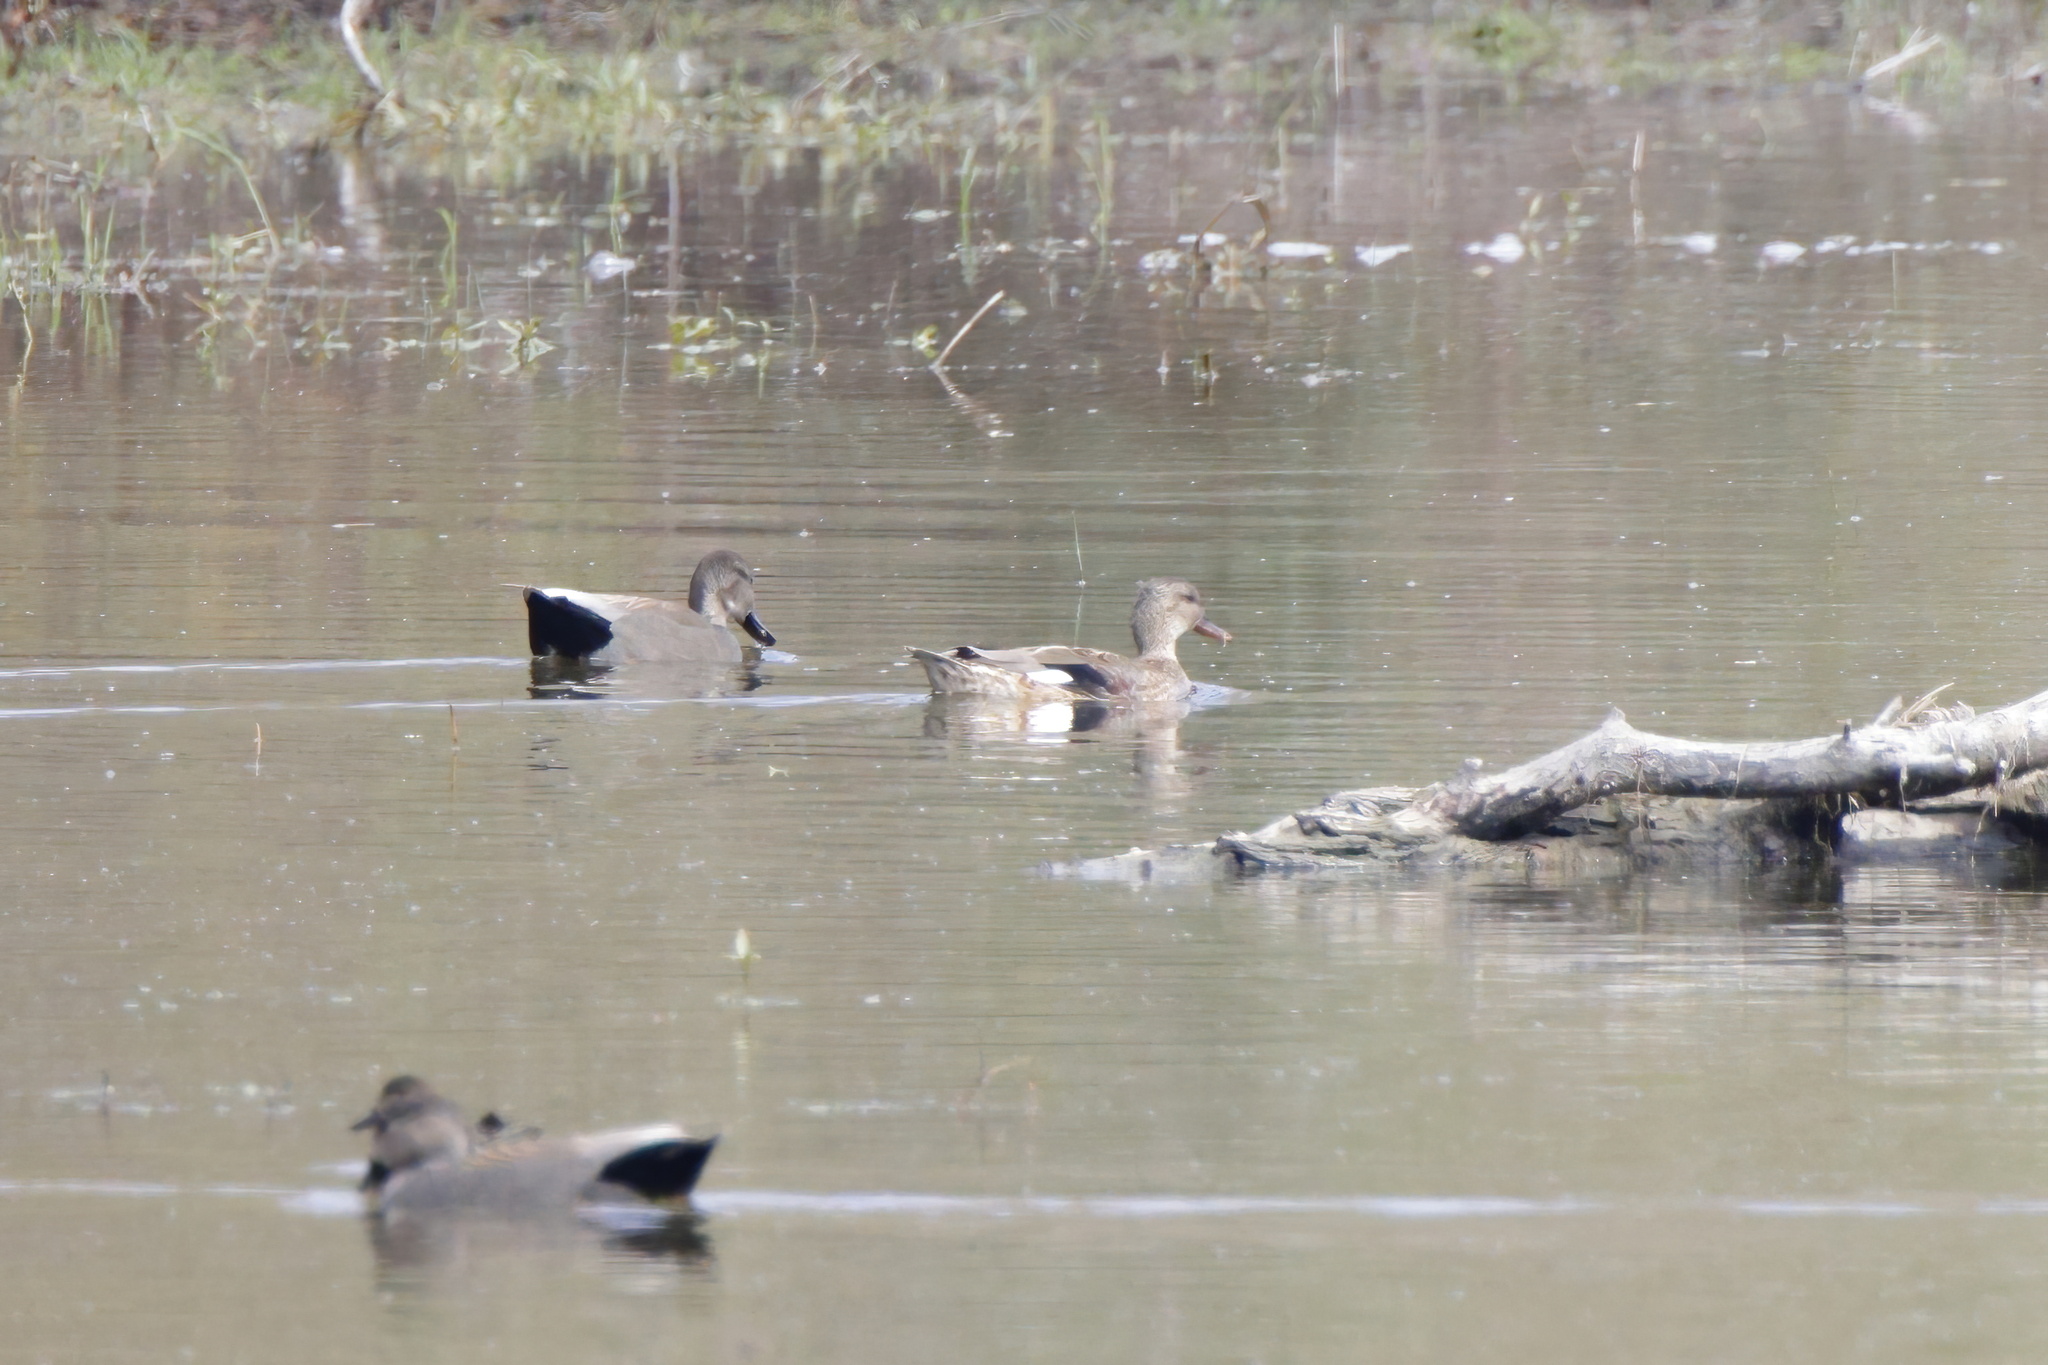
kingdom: Animalia
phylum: Chordata
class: Aves
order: Anseriformes
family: Anatidae
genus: Mareca
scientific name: Mareca strepera
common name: Gadwall
